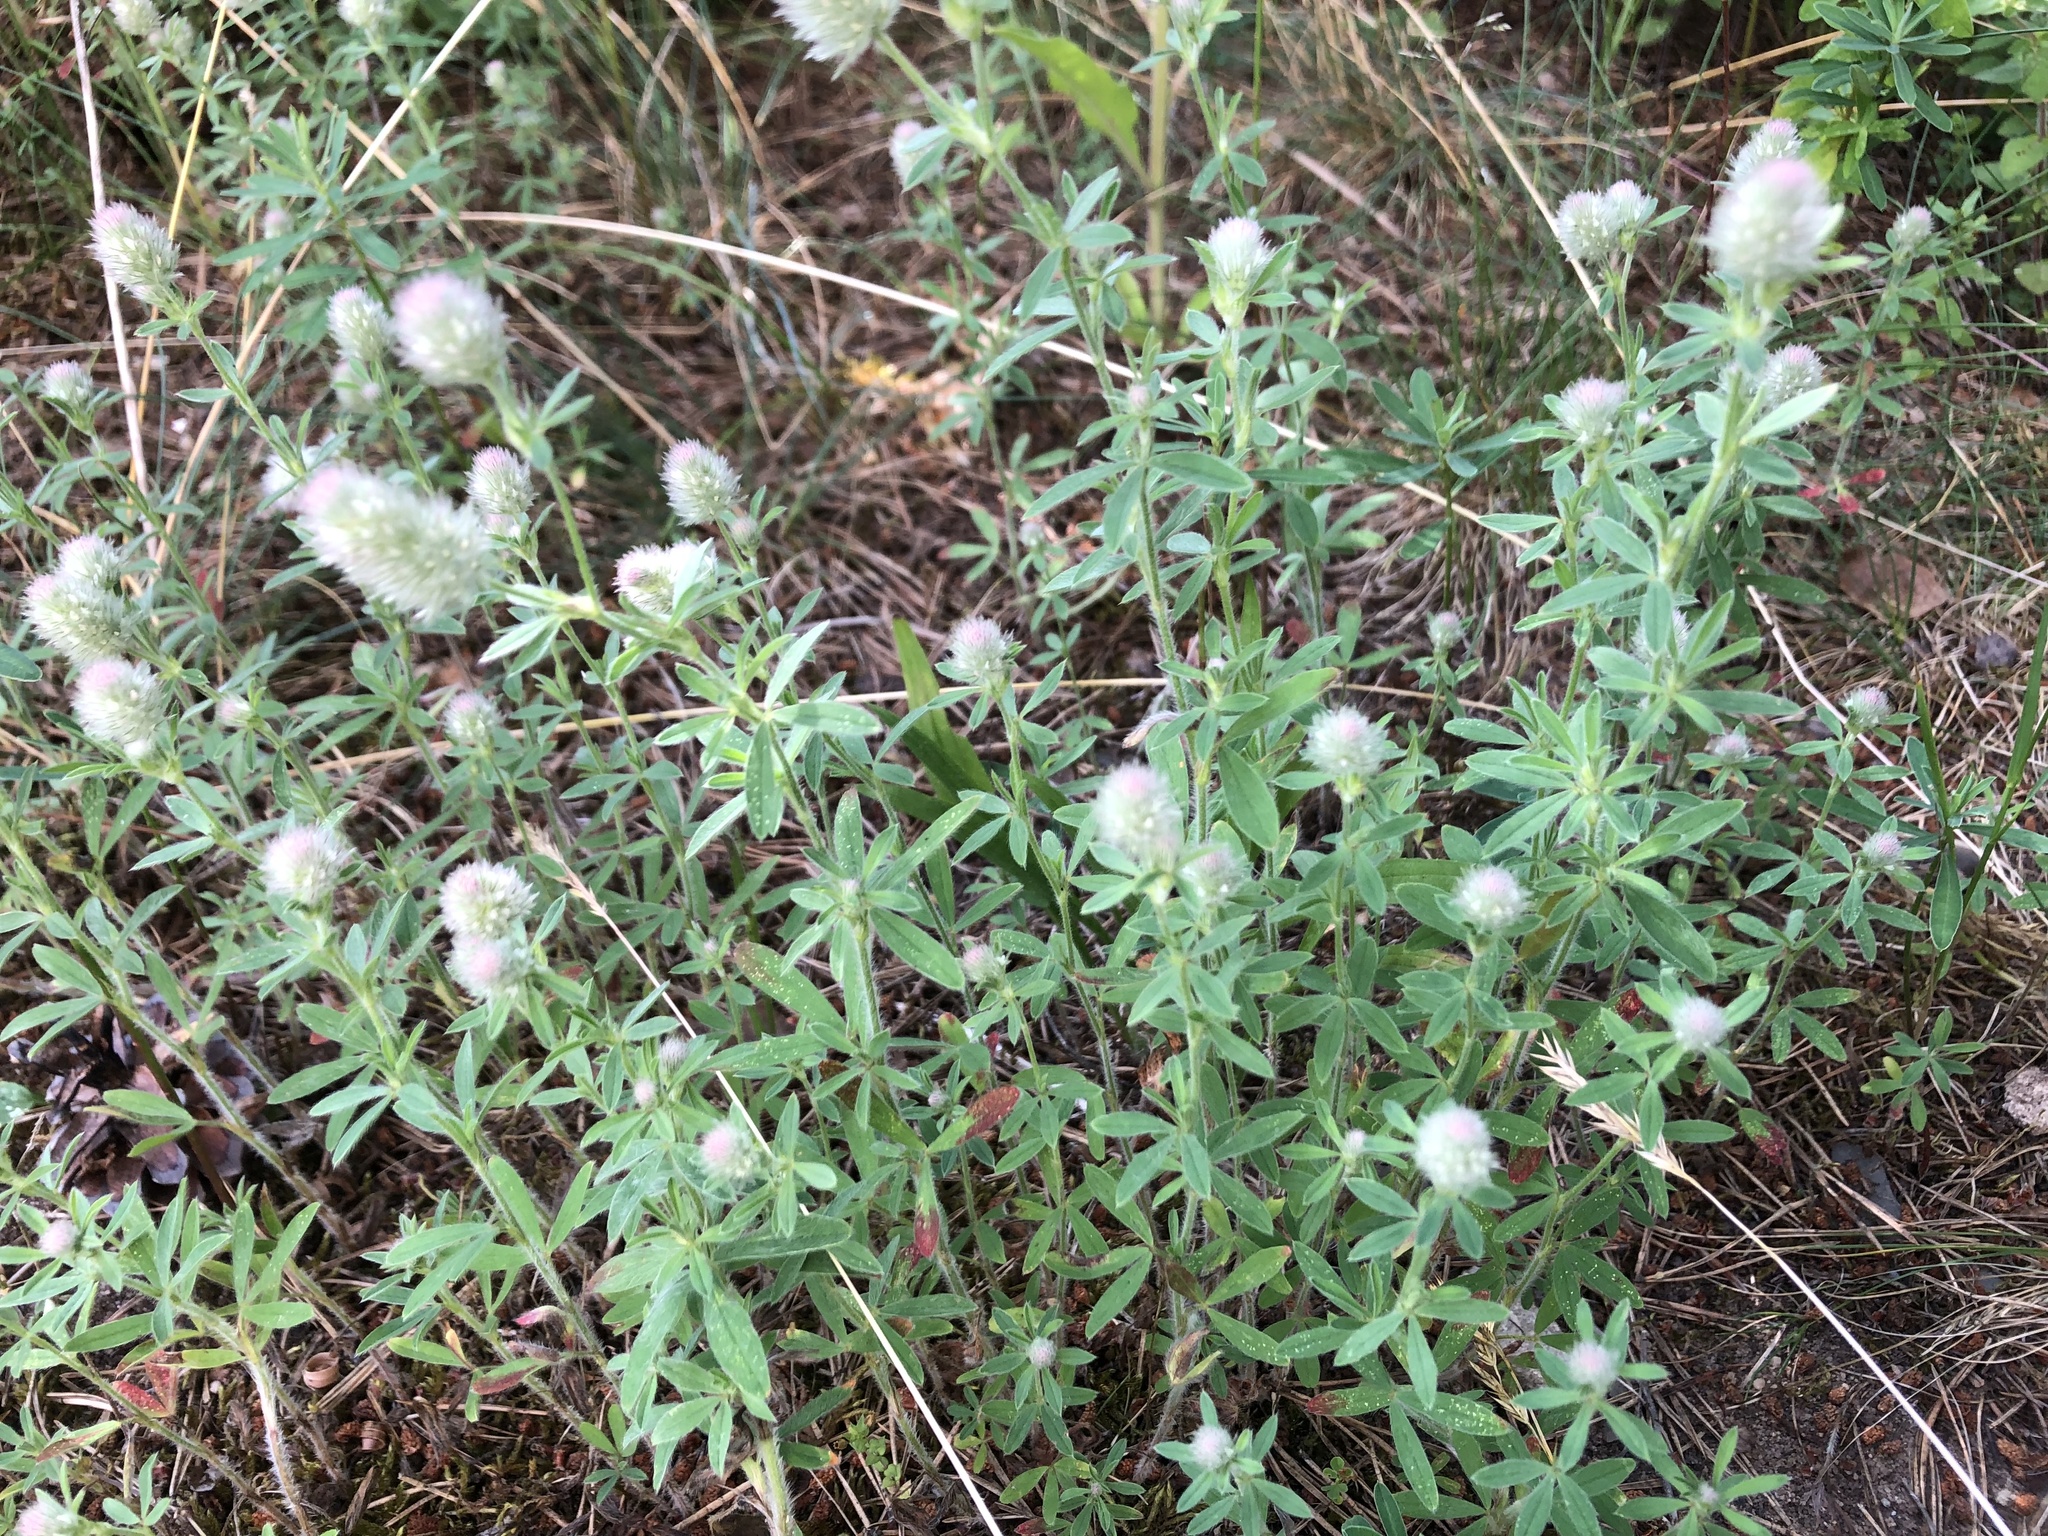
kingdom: Plantae
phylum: Tracheophyta
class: Magnoliopsida
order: Fabales
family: Fabaceae
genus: Trifolium
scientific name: Trifolium arvense
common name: Hare's-foot clover
